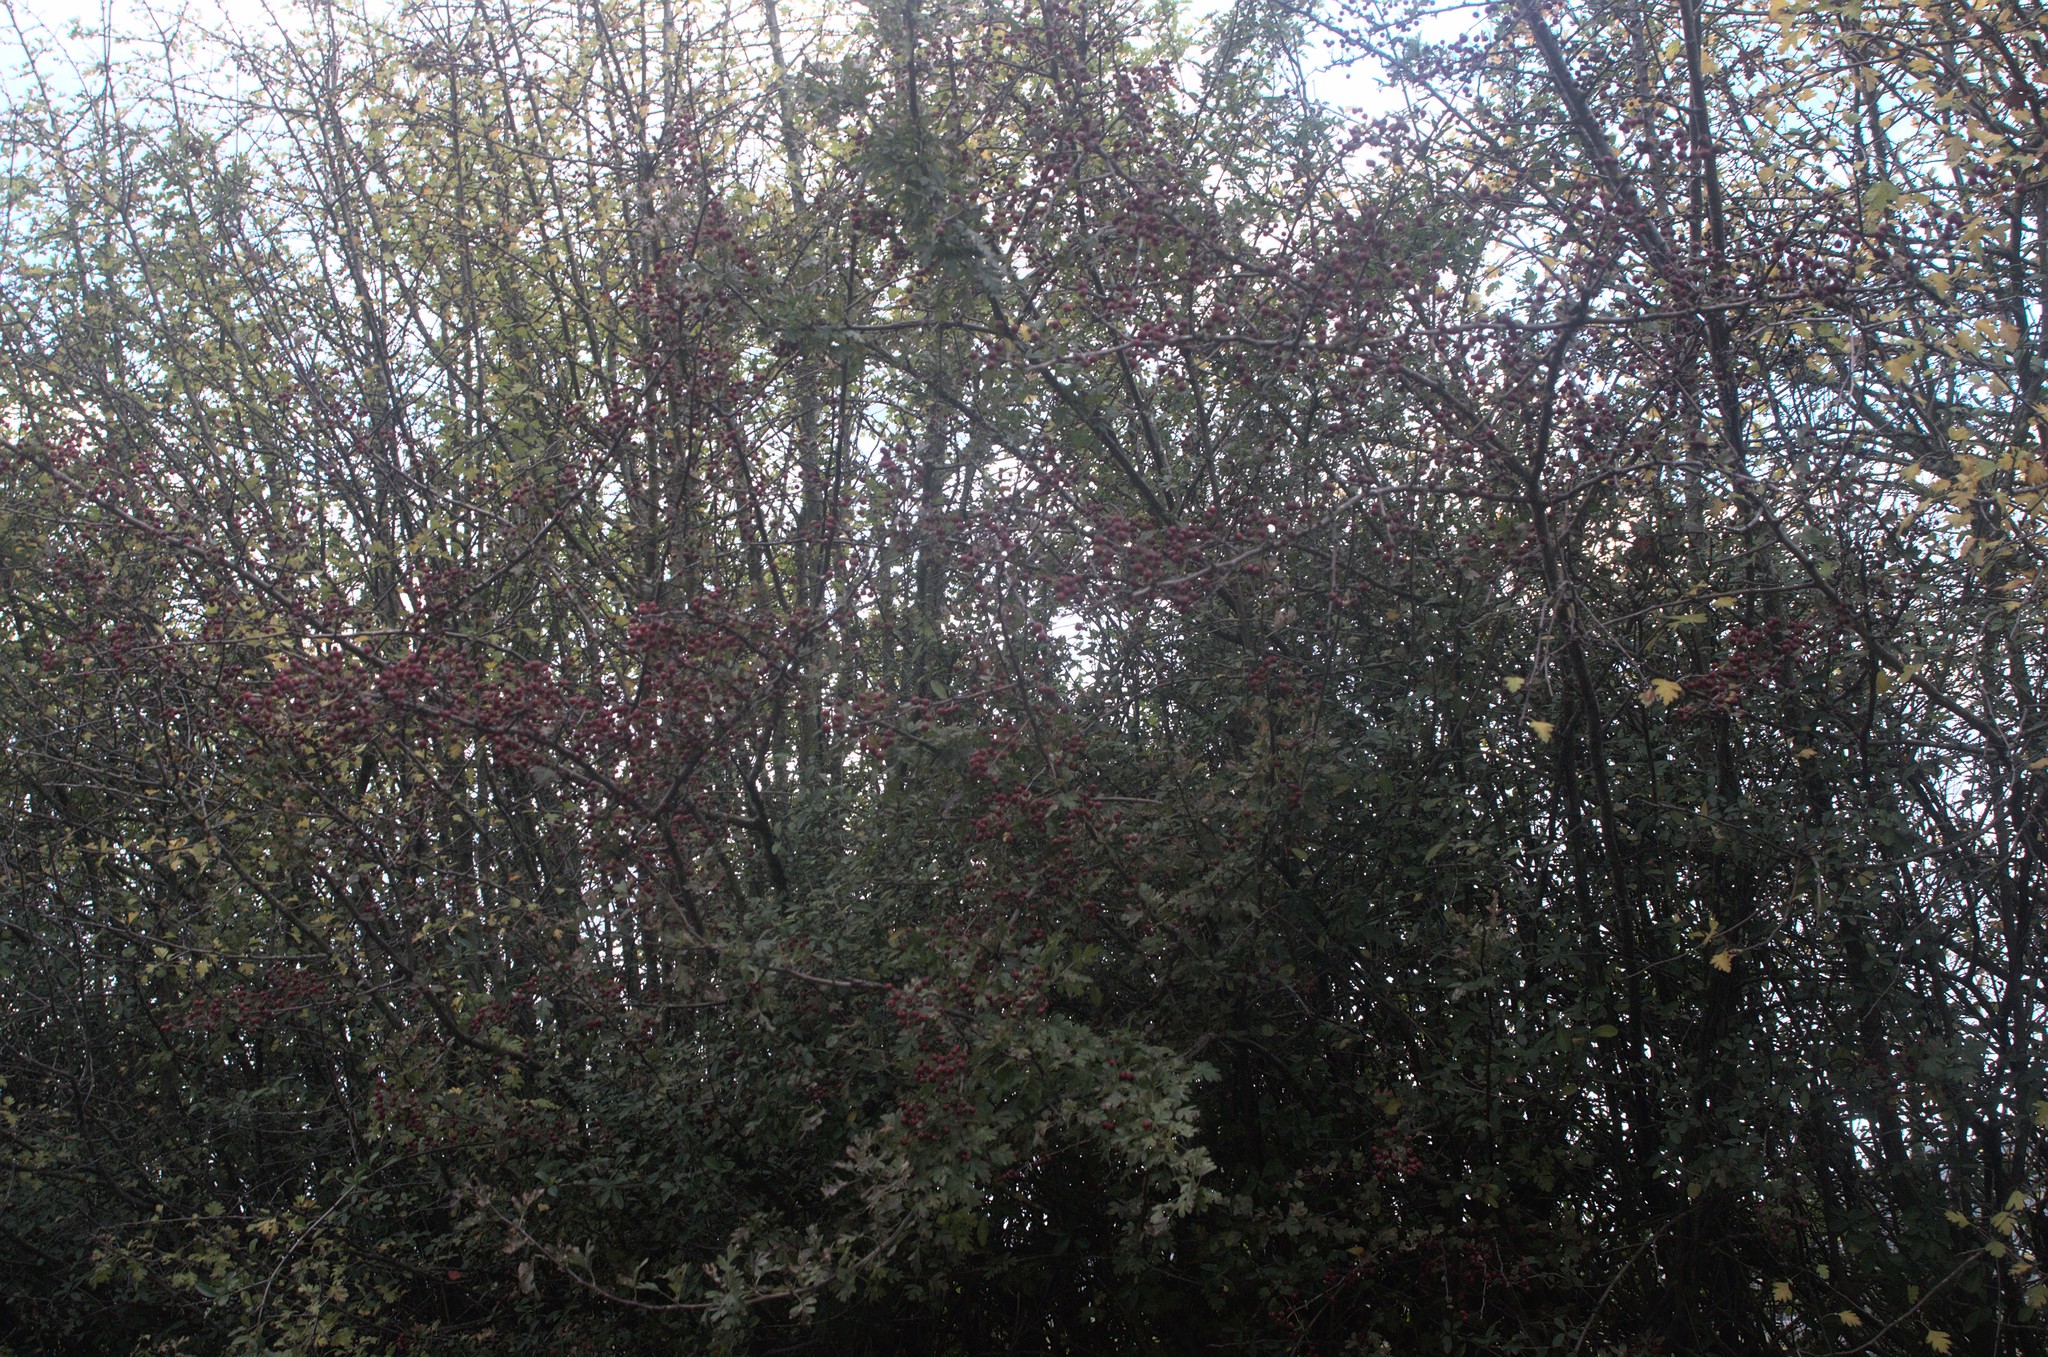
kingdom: Plantae
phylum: Tracheophyta
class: Magnoliopsida
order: Rosales
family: Rosaceae
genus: Crataegus
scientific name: Crataegus monogyna
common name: Hawthorn
